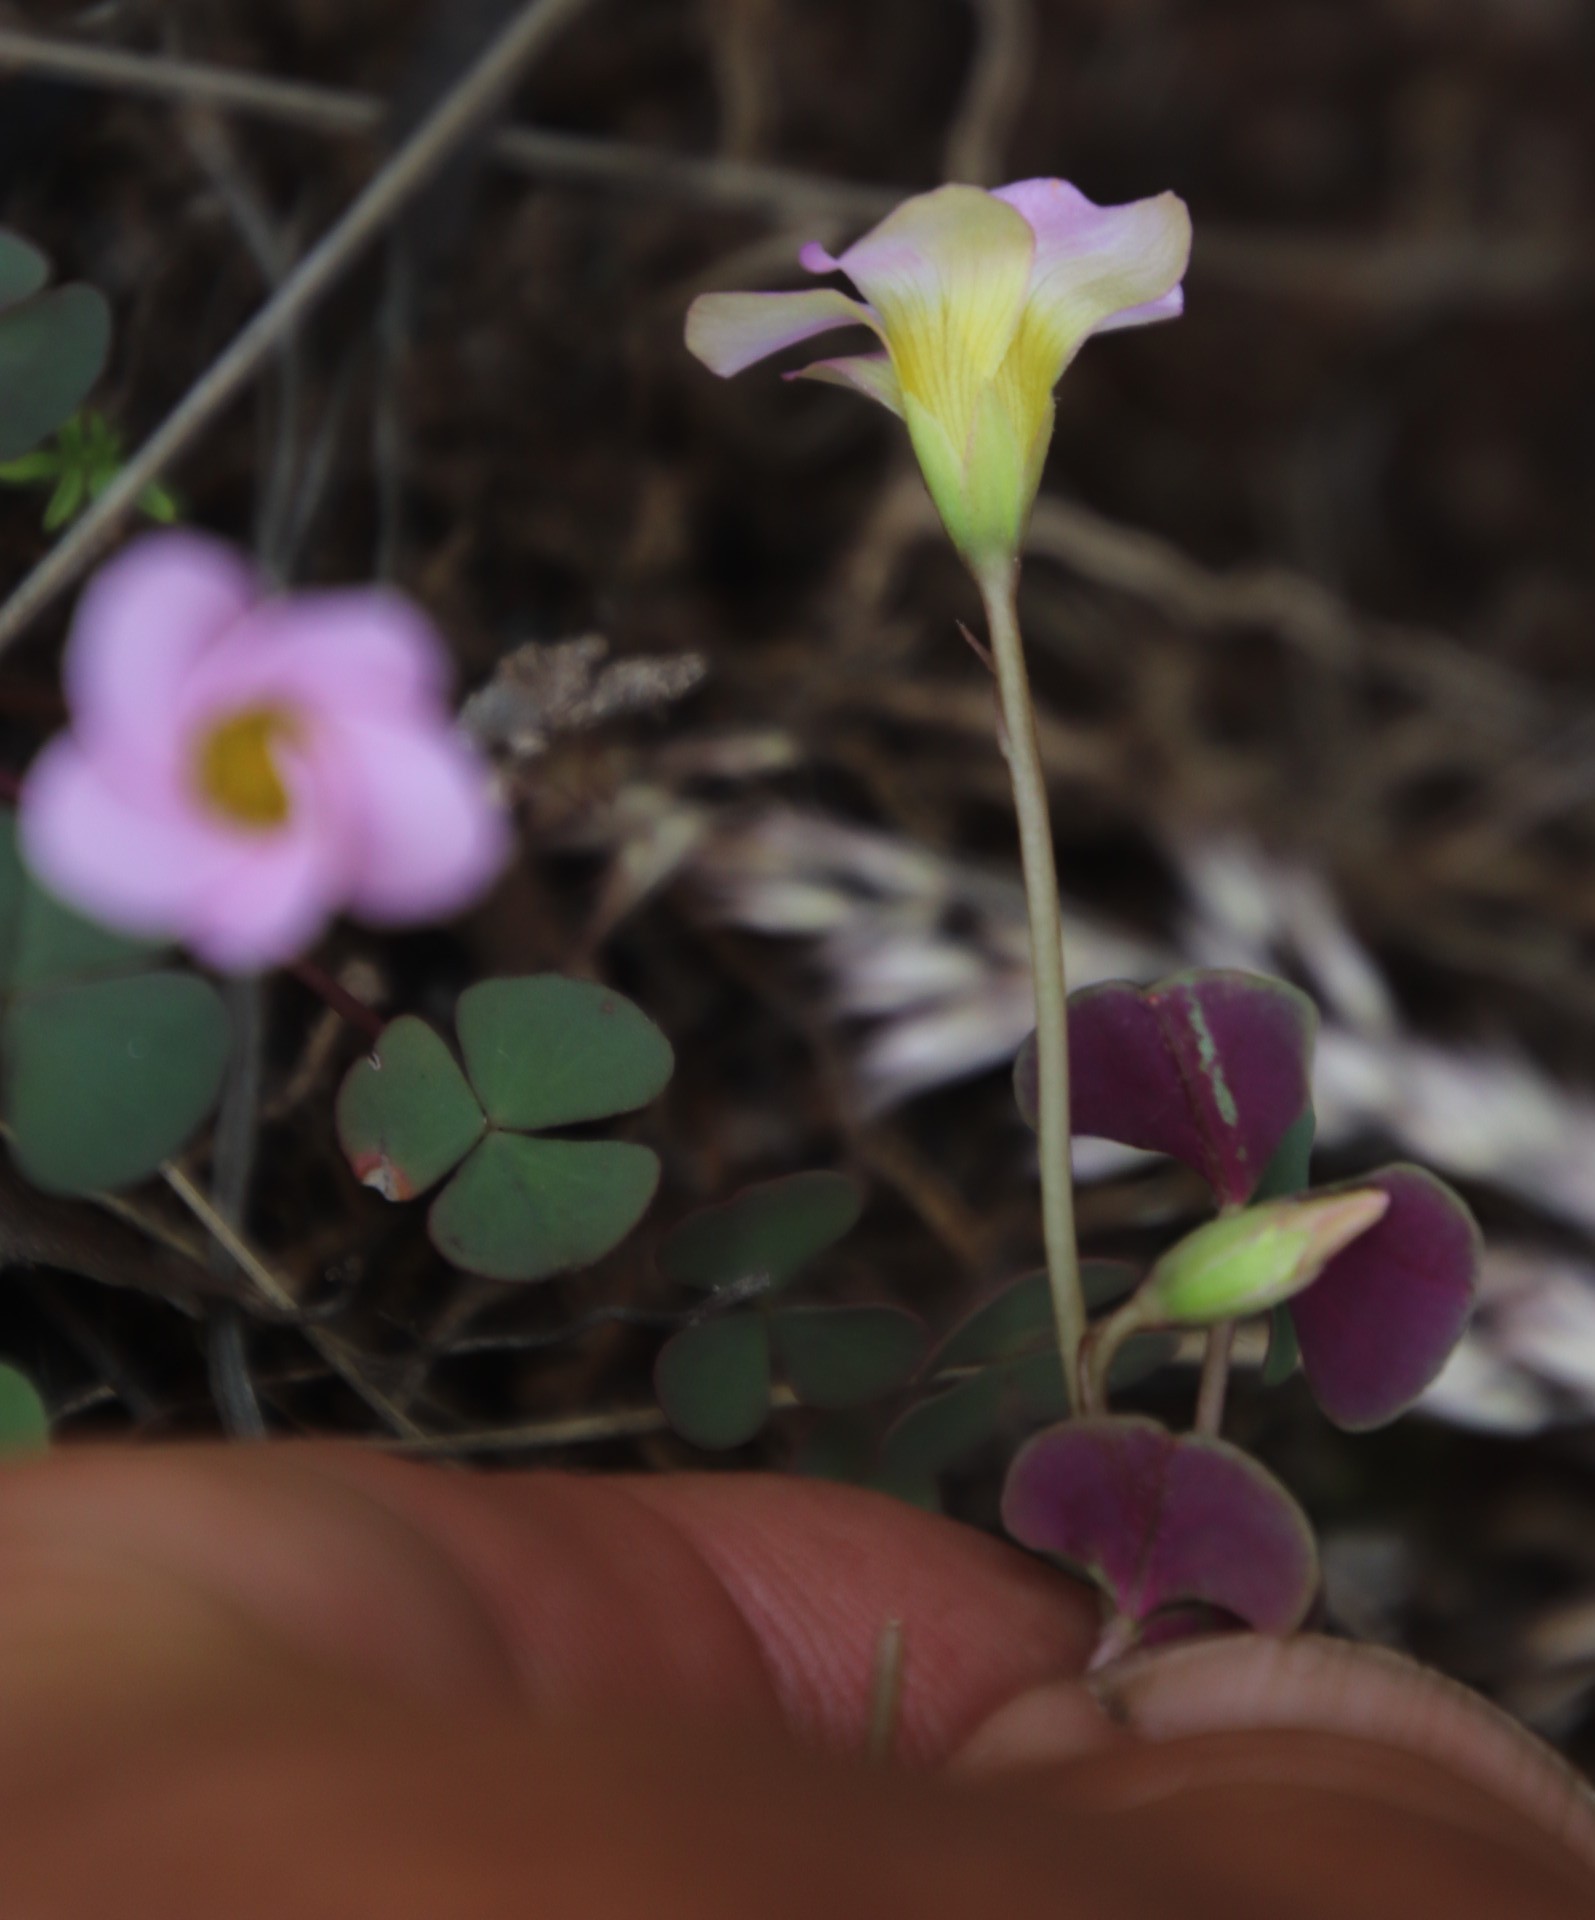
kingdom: Plantae
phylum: Tracheophyta
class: Magnoliopsida
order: Oxalidales
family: Oxalidaceae
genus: Oxalis
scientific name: Oxalis obliquifolia
